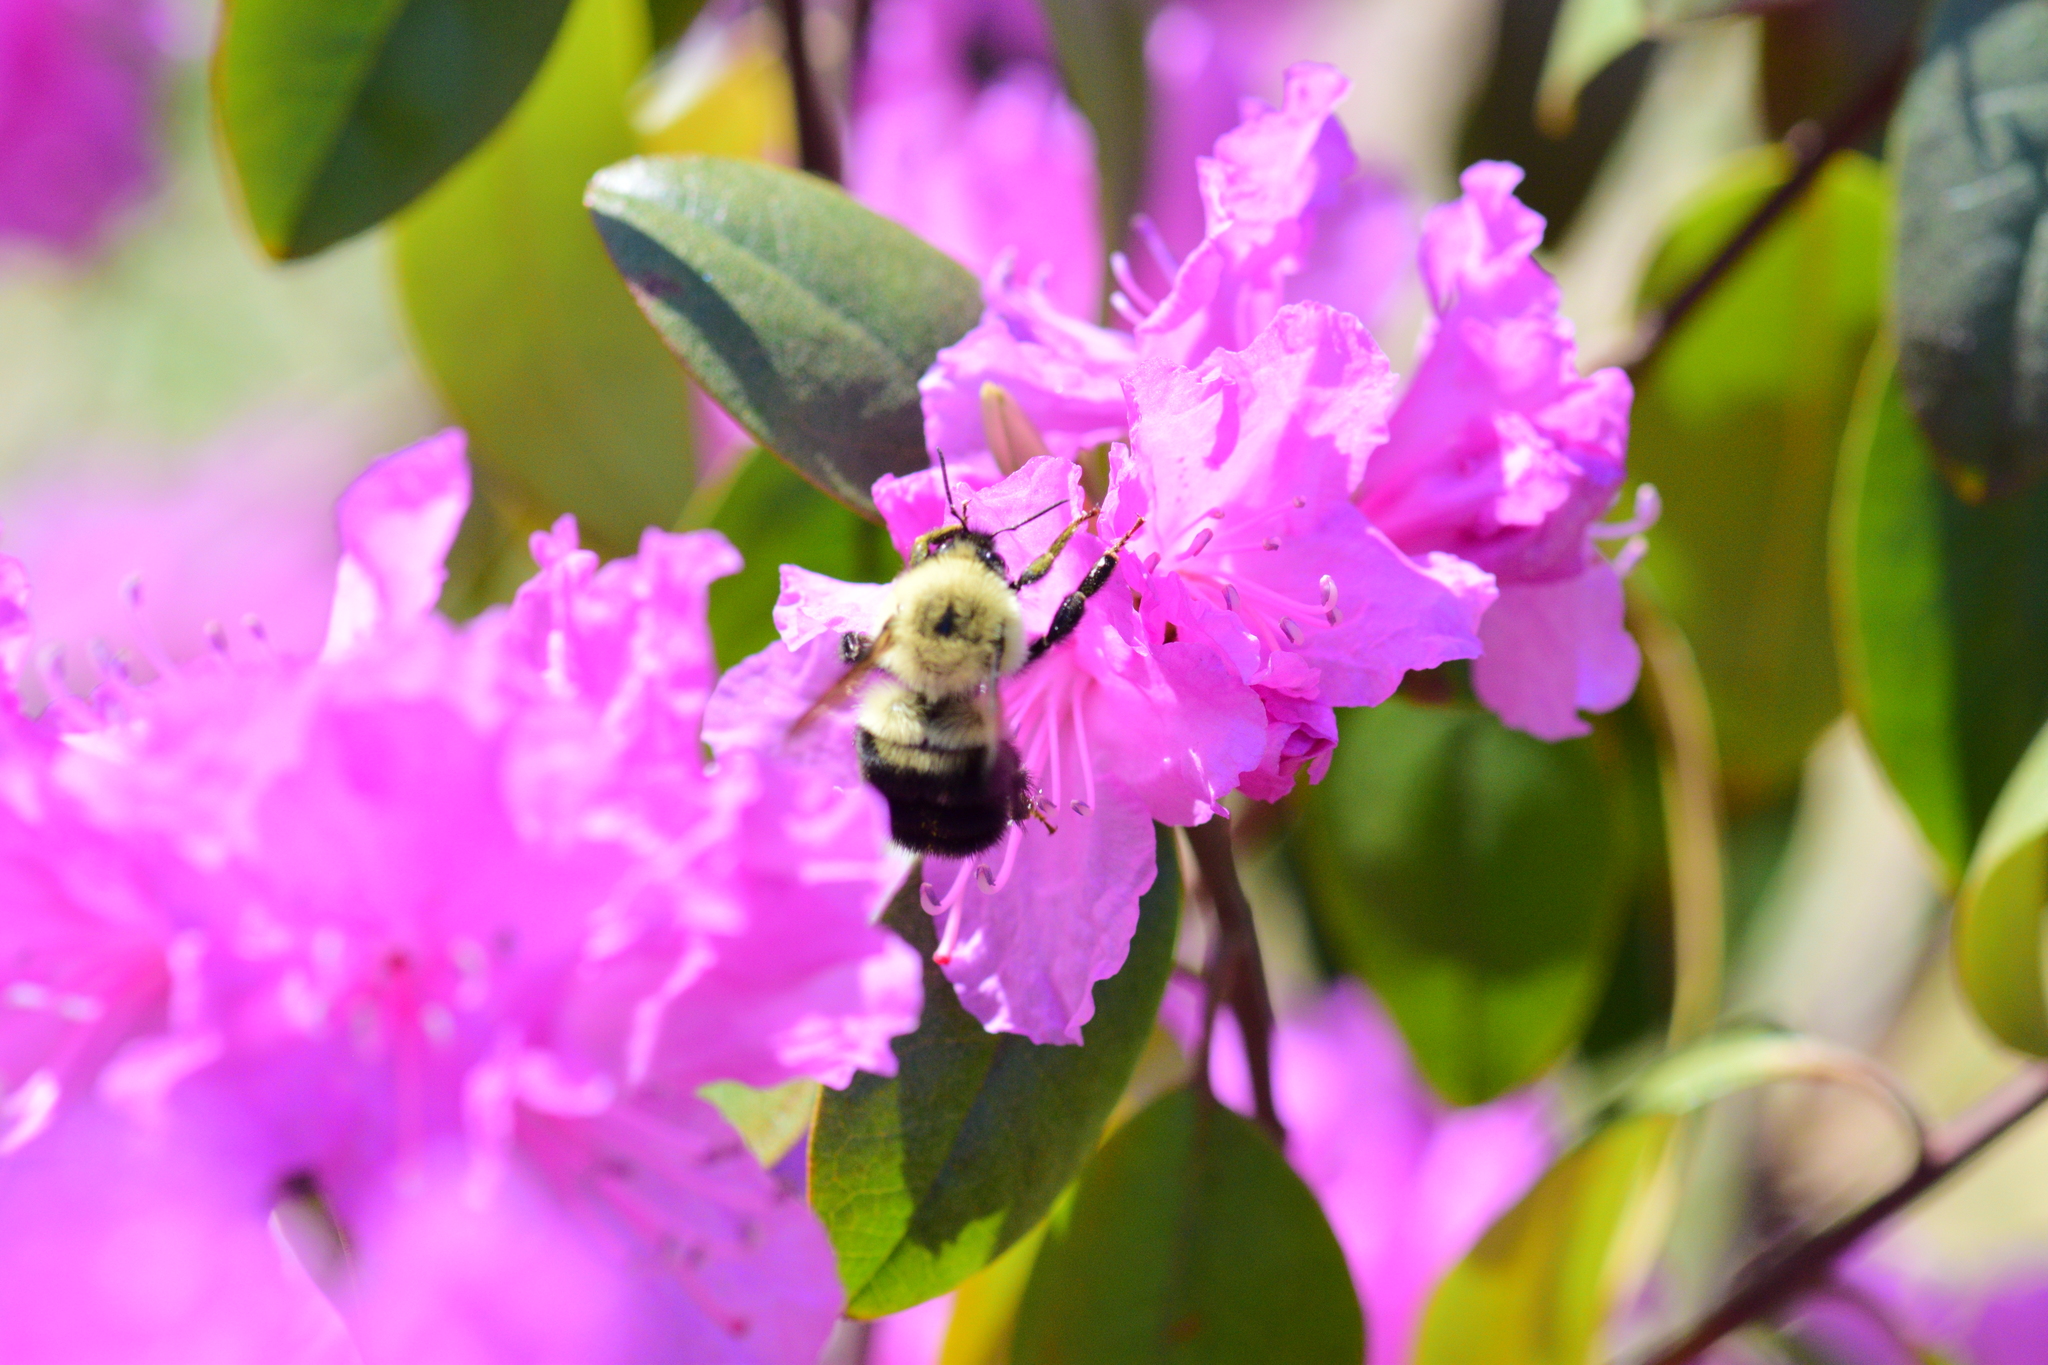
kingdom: Animalia
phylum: Arthropoda
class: Insecta
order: Hymenoptera
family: Apidae
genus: Bombus
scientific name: Bombus bimaculatus
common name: Two-spotted bumble bee
